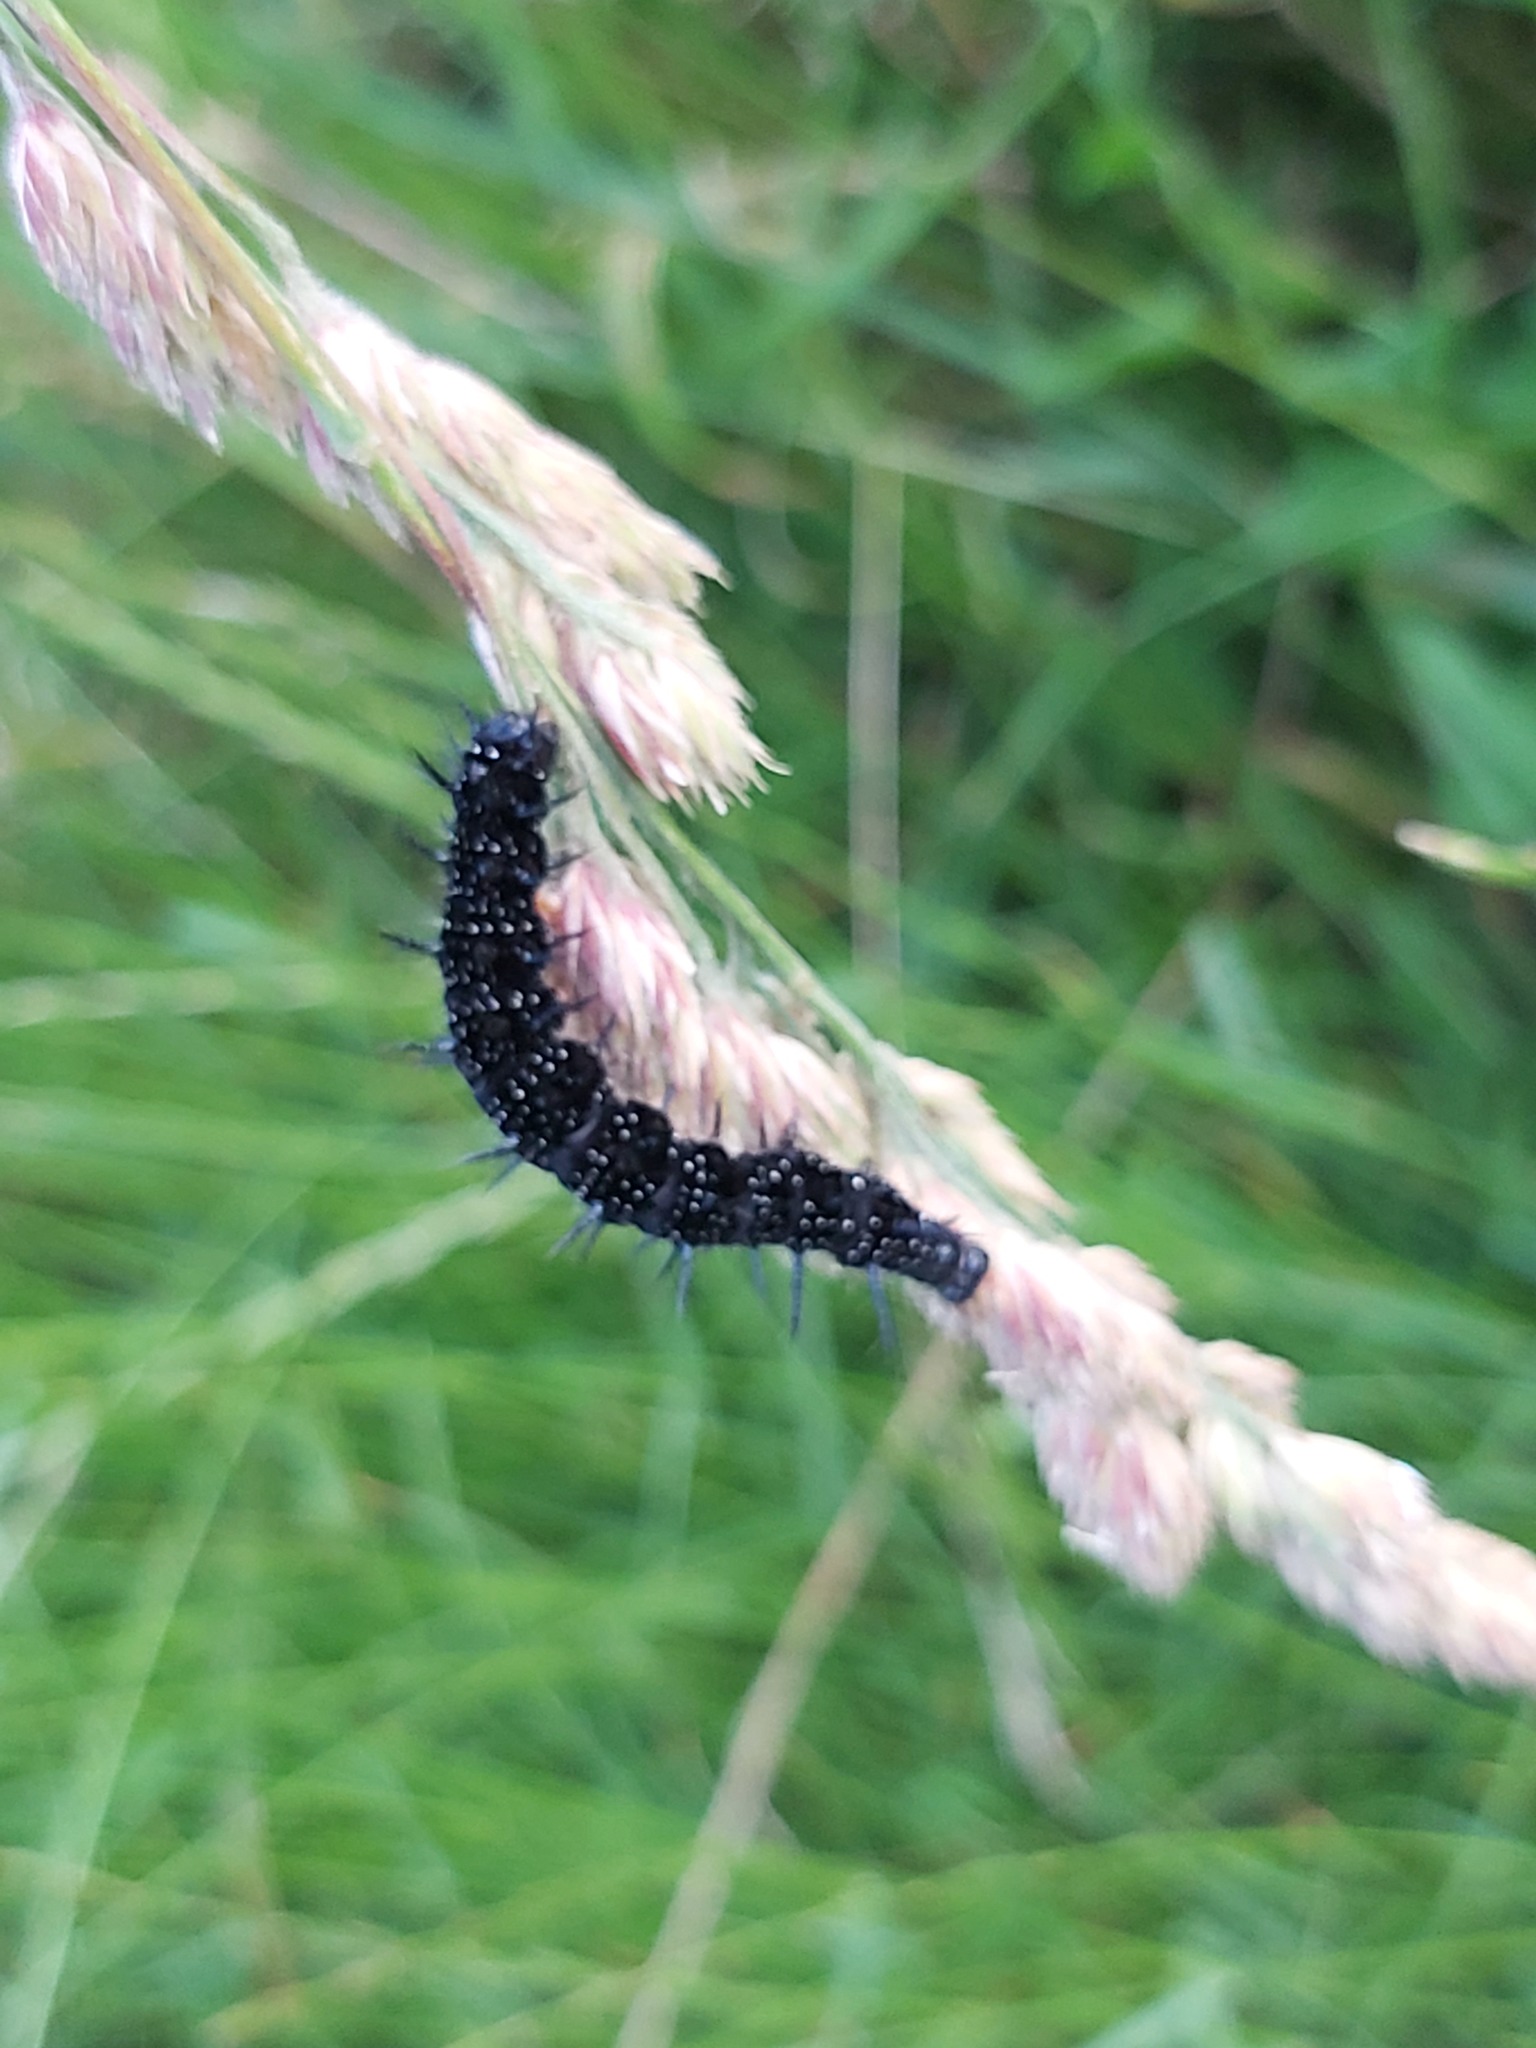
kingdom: Animalia
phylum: Arthropoda
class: Insecta
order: Lepidoptera
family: Nymphalidae
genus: Aglais
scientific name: Aglais io
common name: Peacock
